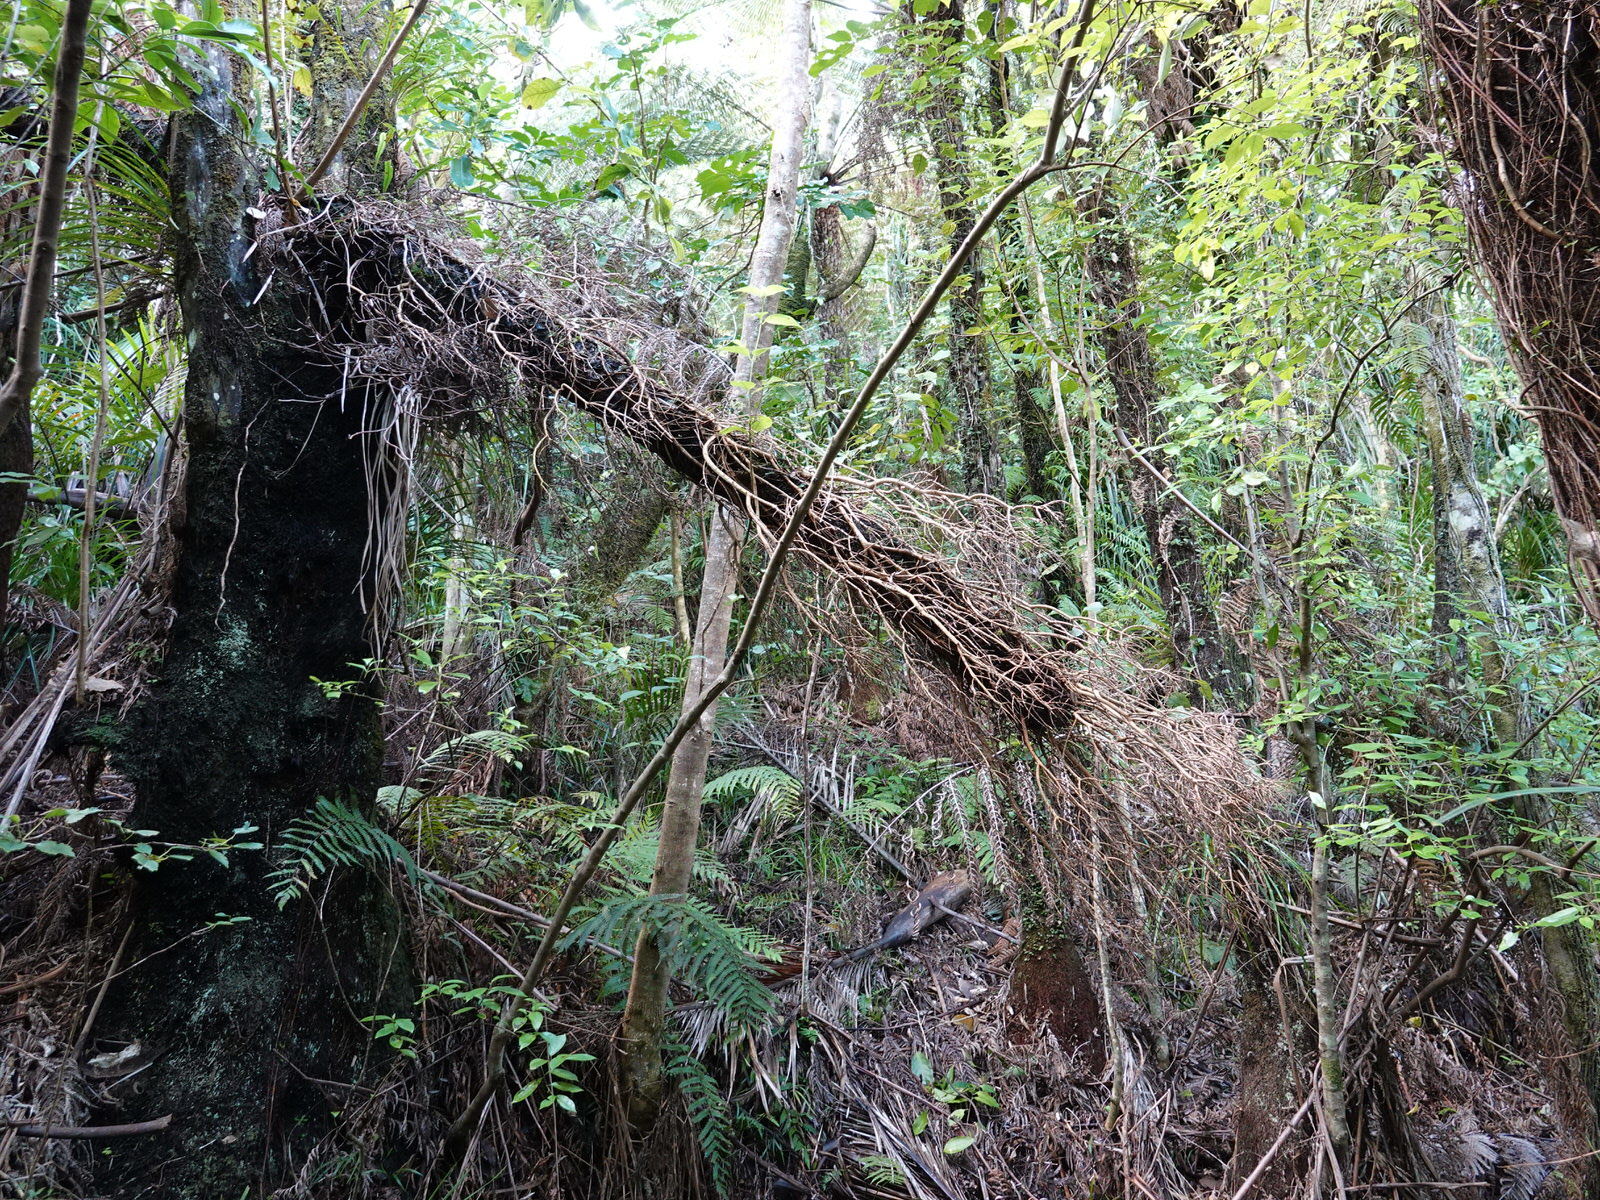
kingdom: Plantae
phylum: Tracheophyta
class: Magnoliopsida
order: Myrtales
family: Myrtaceae
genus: Metrosideros
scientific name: Metrosideros carminea
